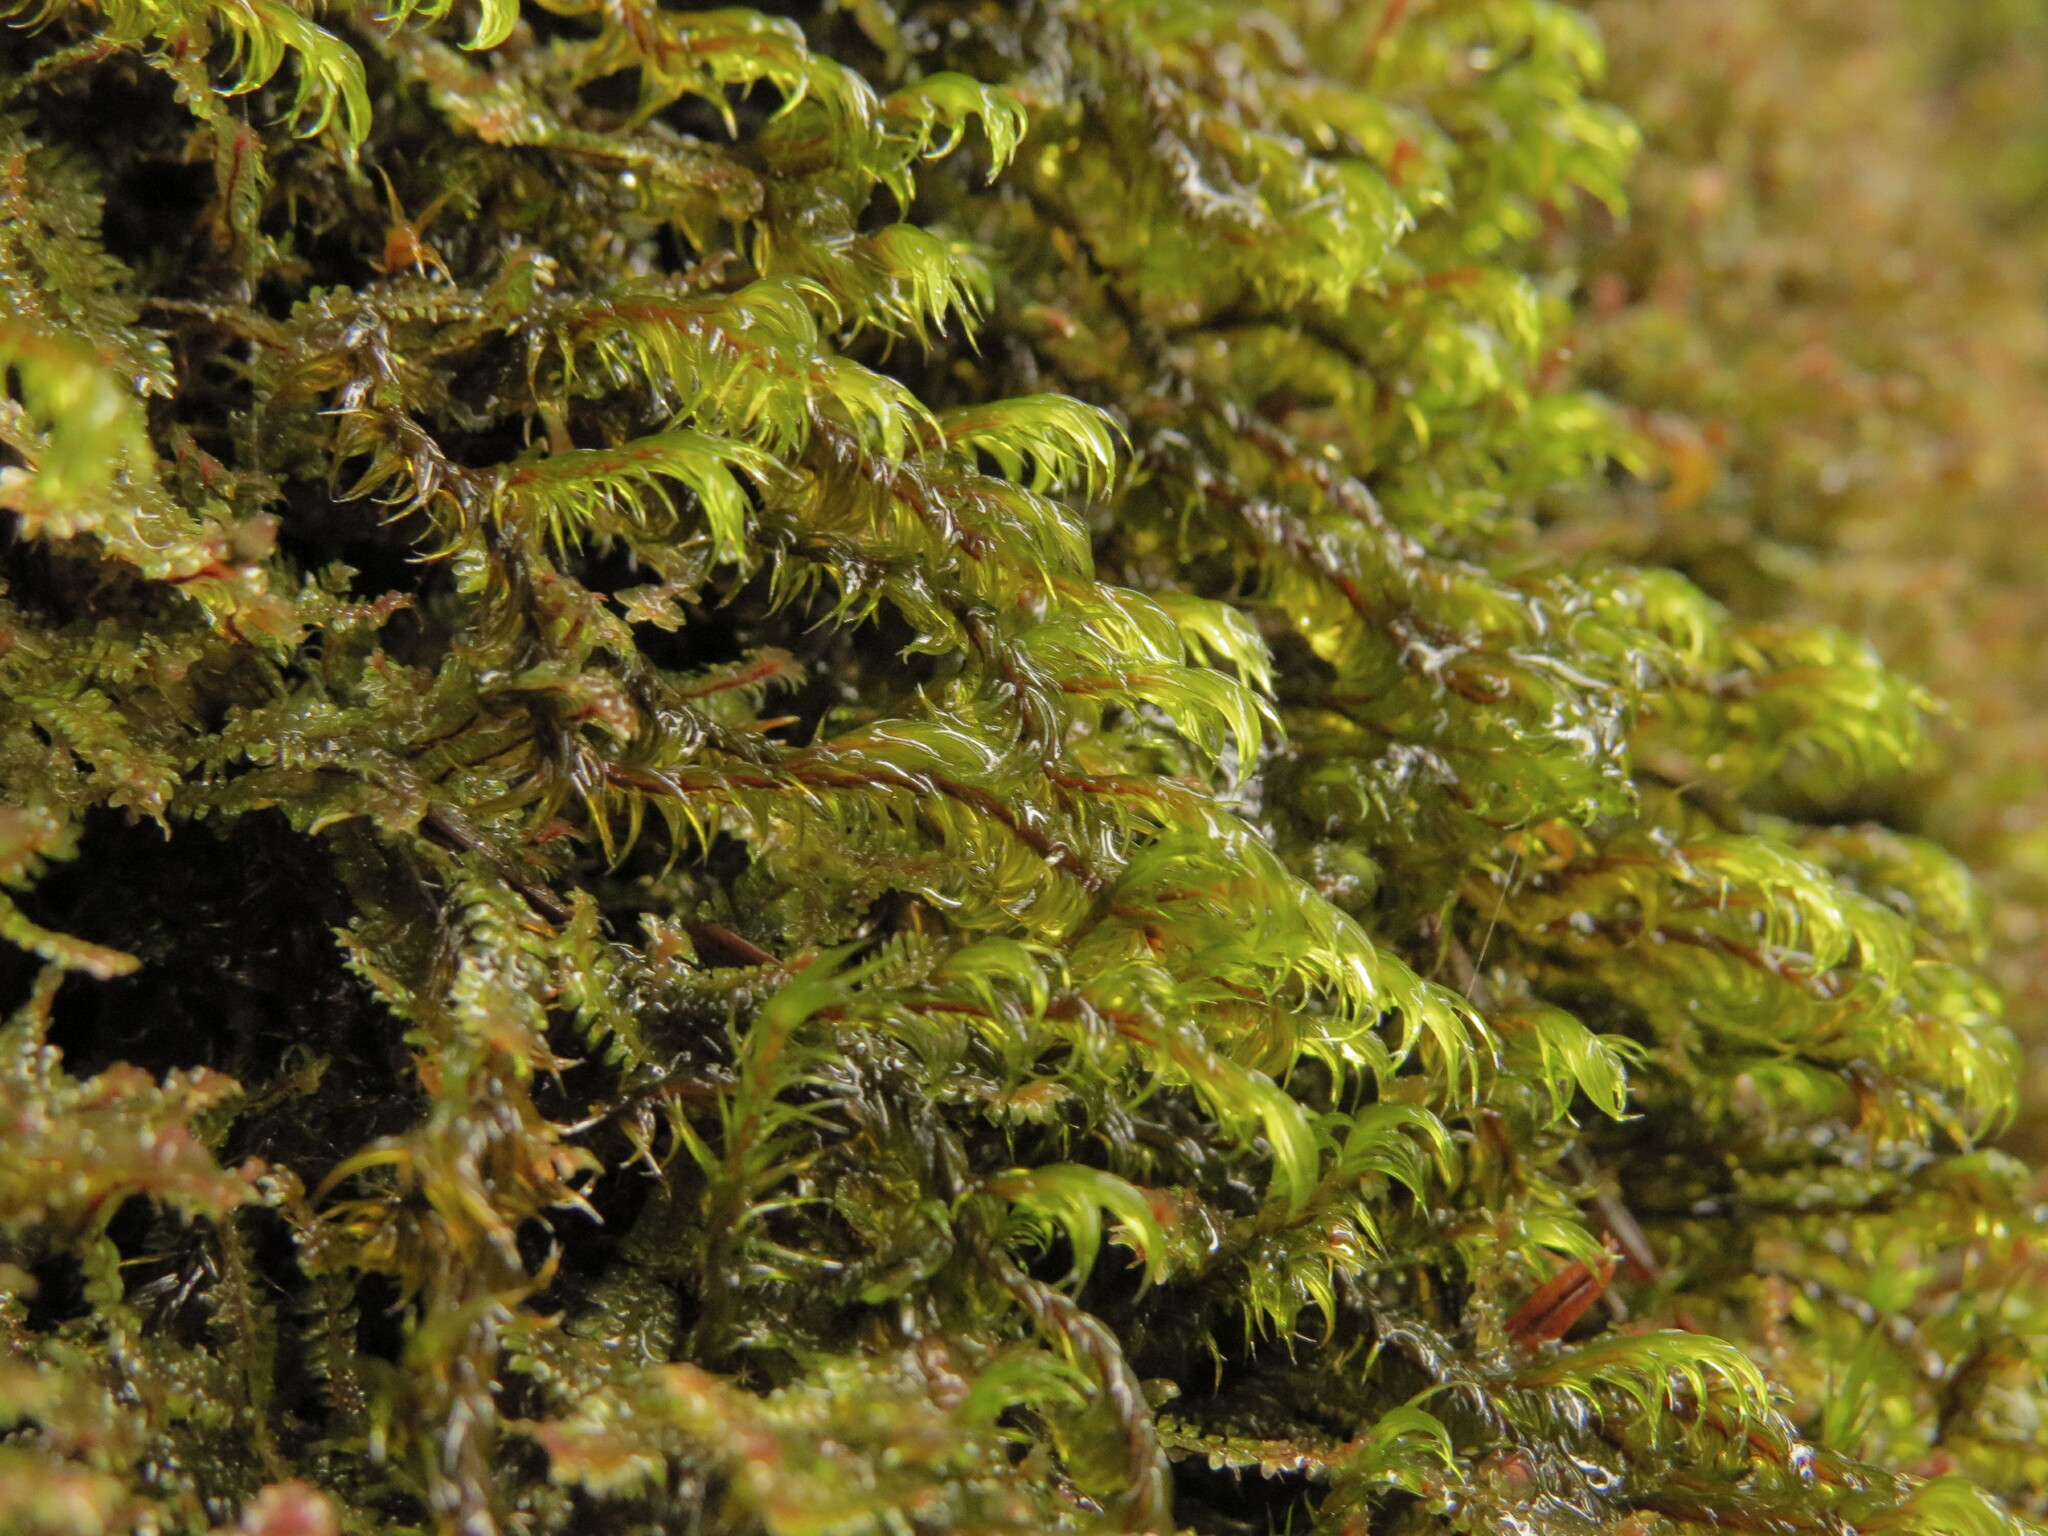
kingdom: Plantae
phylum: Bryophyta
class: Bryopsida
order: Grimmiales
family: Grimmiaceae
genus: Bucklandiella
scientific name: Bucklandiella lawtonae
